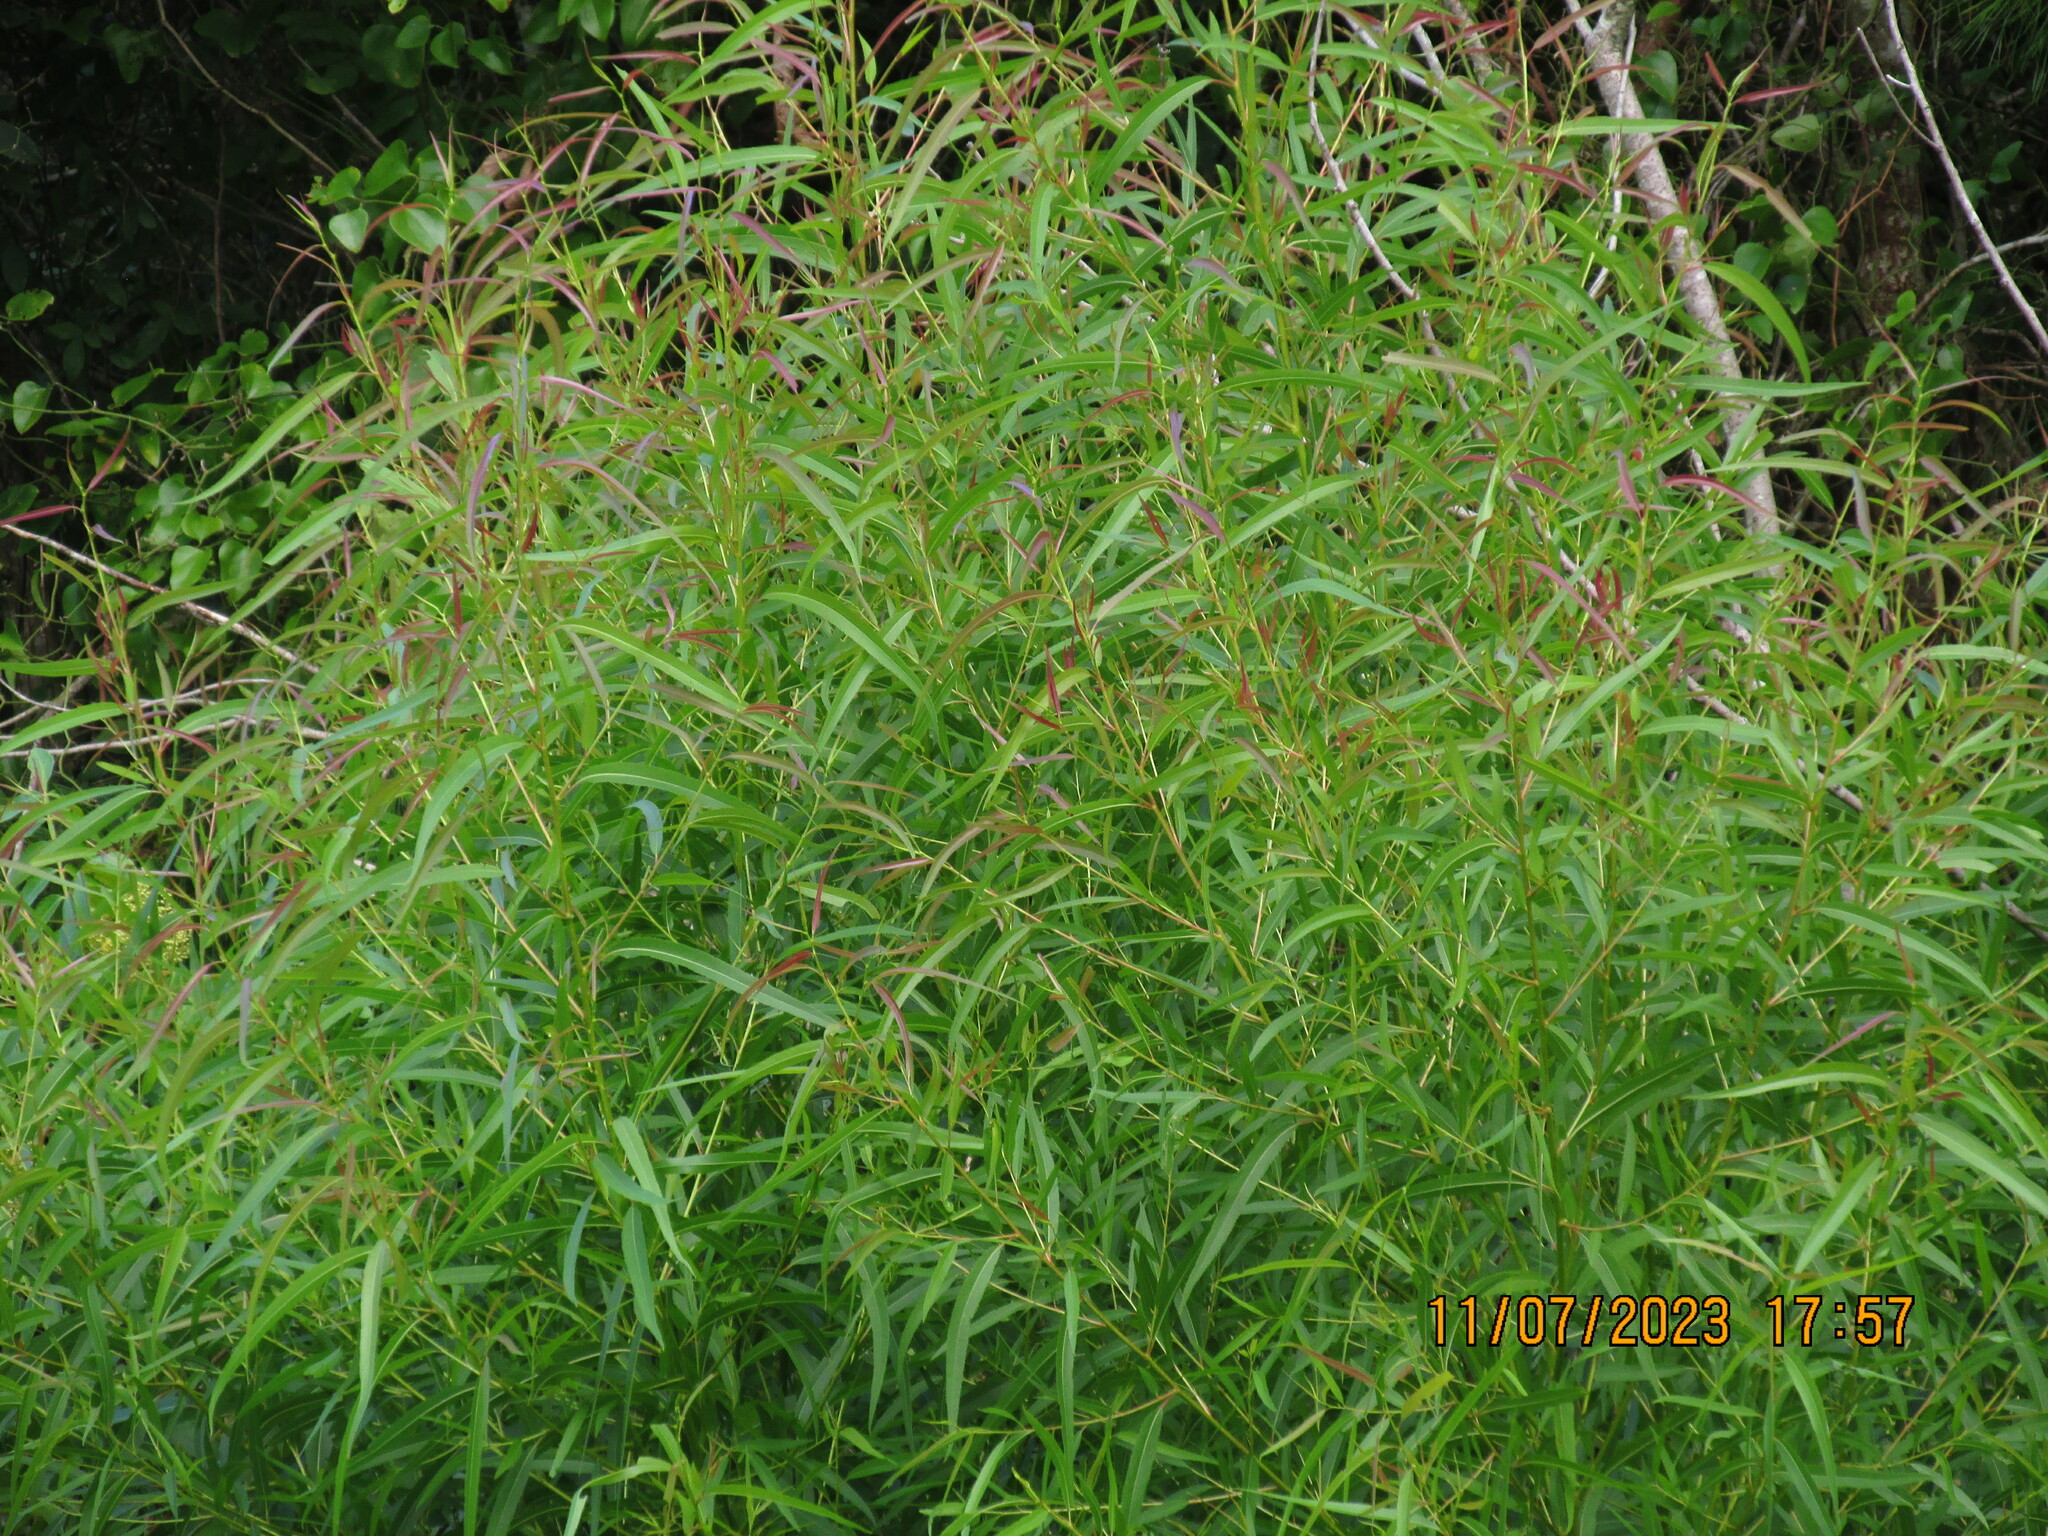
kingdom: Plantae
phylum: Tracheophyta
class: Magnoliopsida
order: Malpighiales
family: Salicaceae
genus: Salix
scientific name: Salix nigra
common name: Black willow
